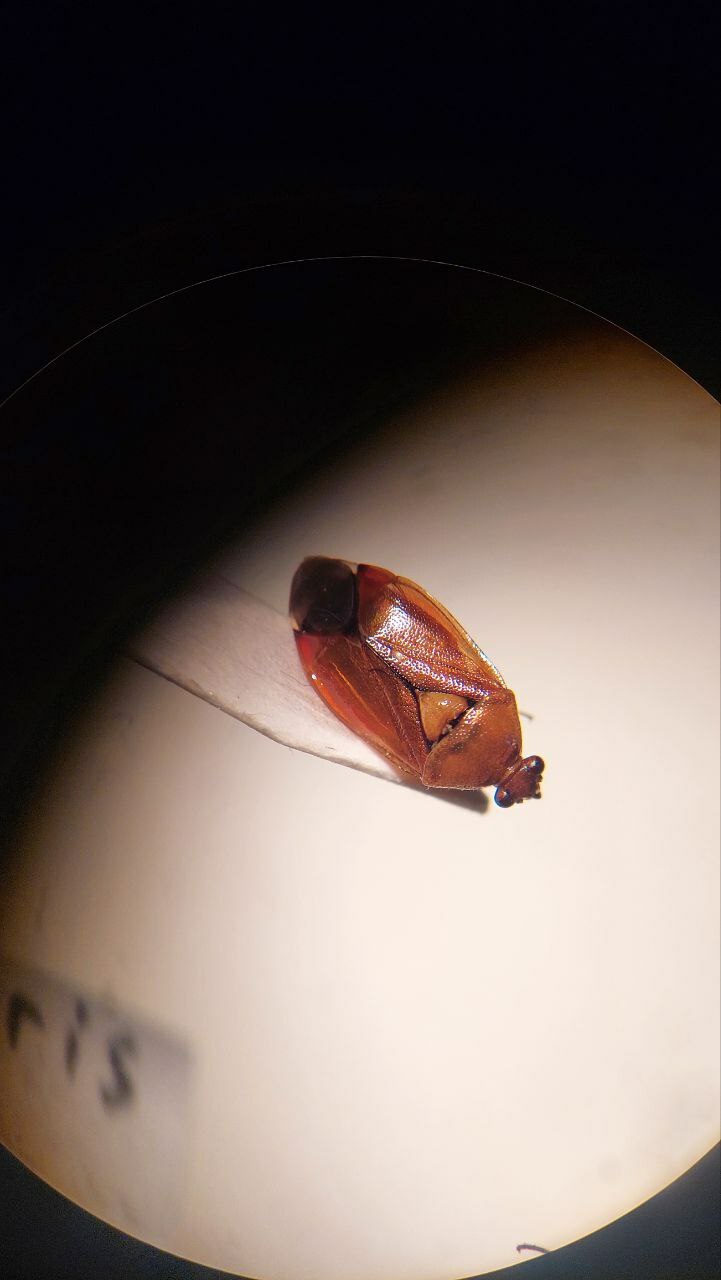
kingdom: Animalia
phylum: Arthropoda
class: Insecta
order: Hemiptera
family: Miridae
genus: Deraeocoris
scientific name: Deraeocoris ruber
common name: Plant bug
